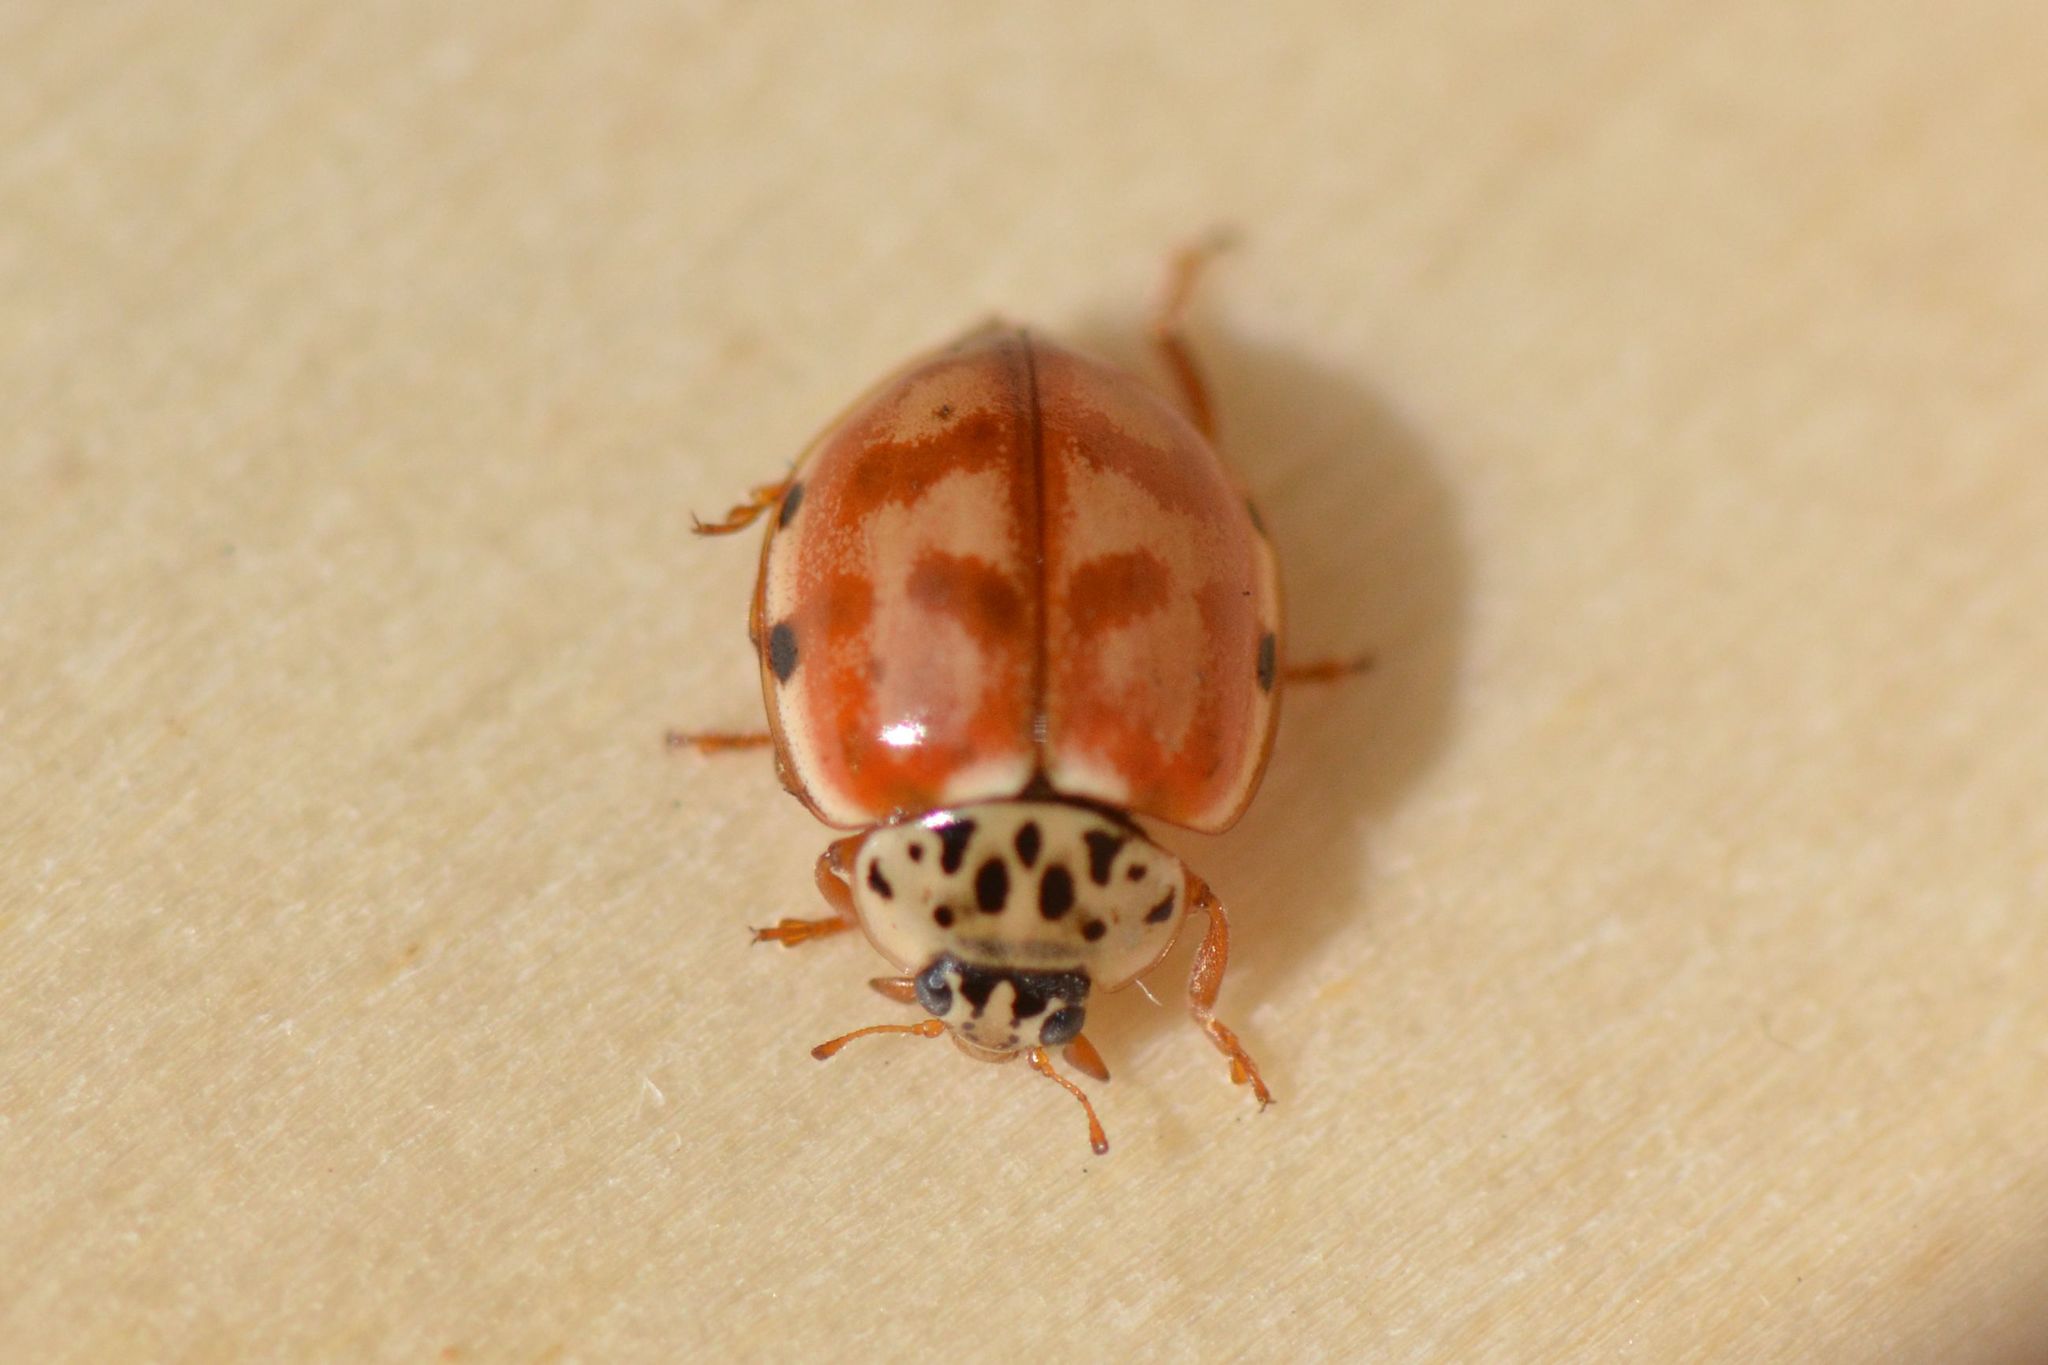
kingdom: Animalia
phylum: Arthropoda
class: Insecta
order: Coleoptera
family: Coccinellidae
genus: Harmonia
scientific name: Harmonia quadripunctata
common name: Cream-streaked ladybird
